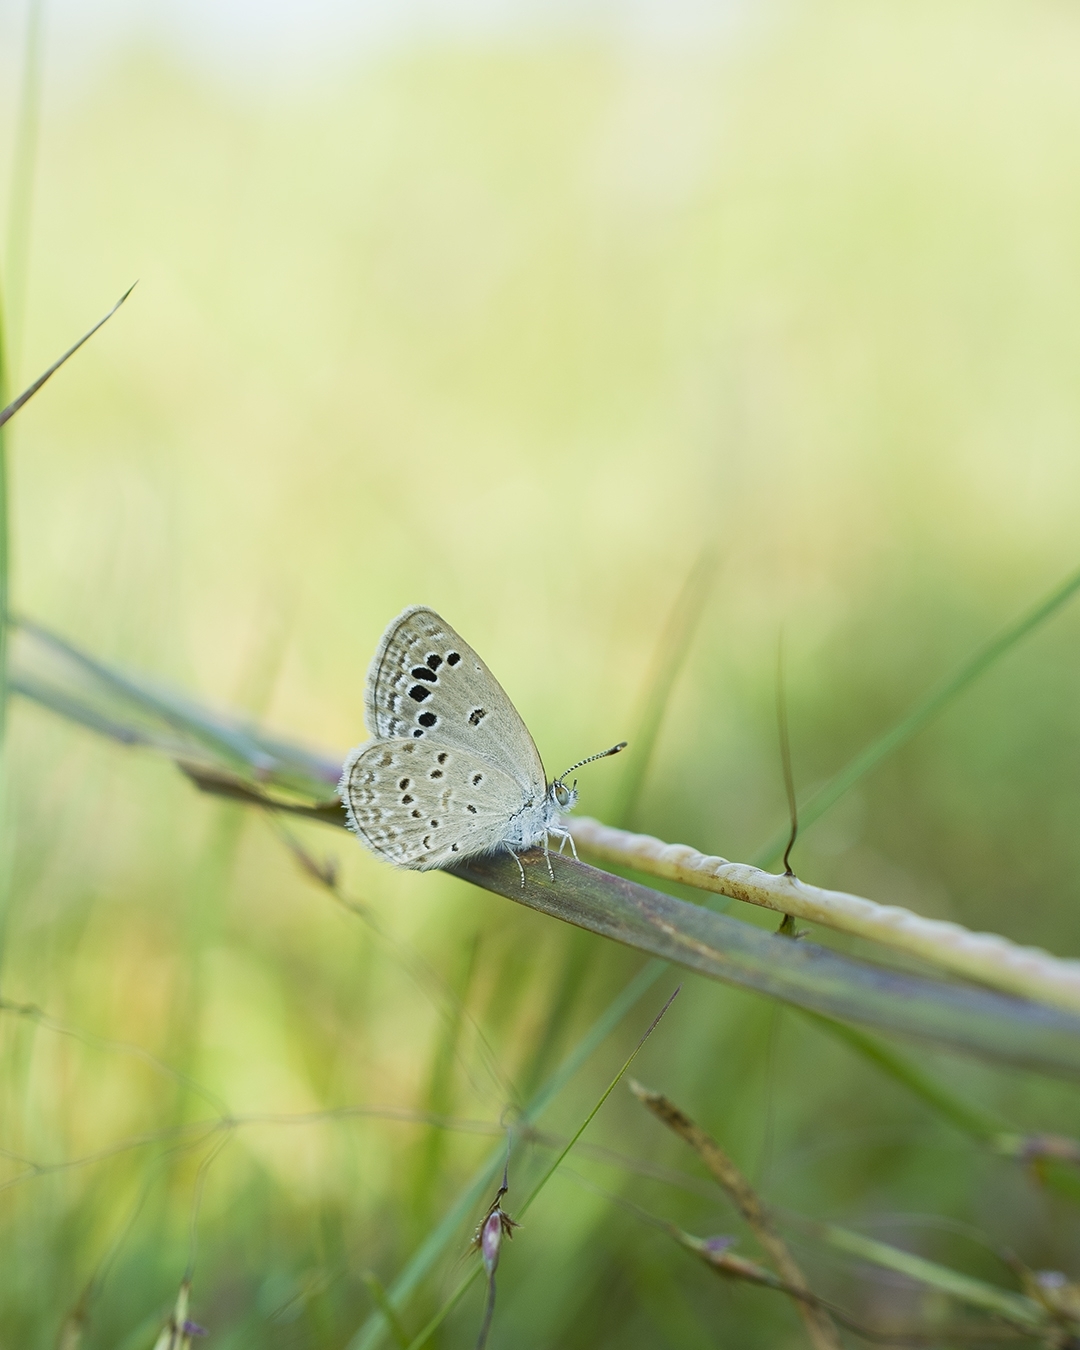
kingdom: Animalia
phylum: Arthropoda
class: Insecta
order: Lepidoptera
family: Lycaenidae
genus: Zizina
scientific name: Zizina otis
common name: Lesser grass blue
